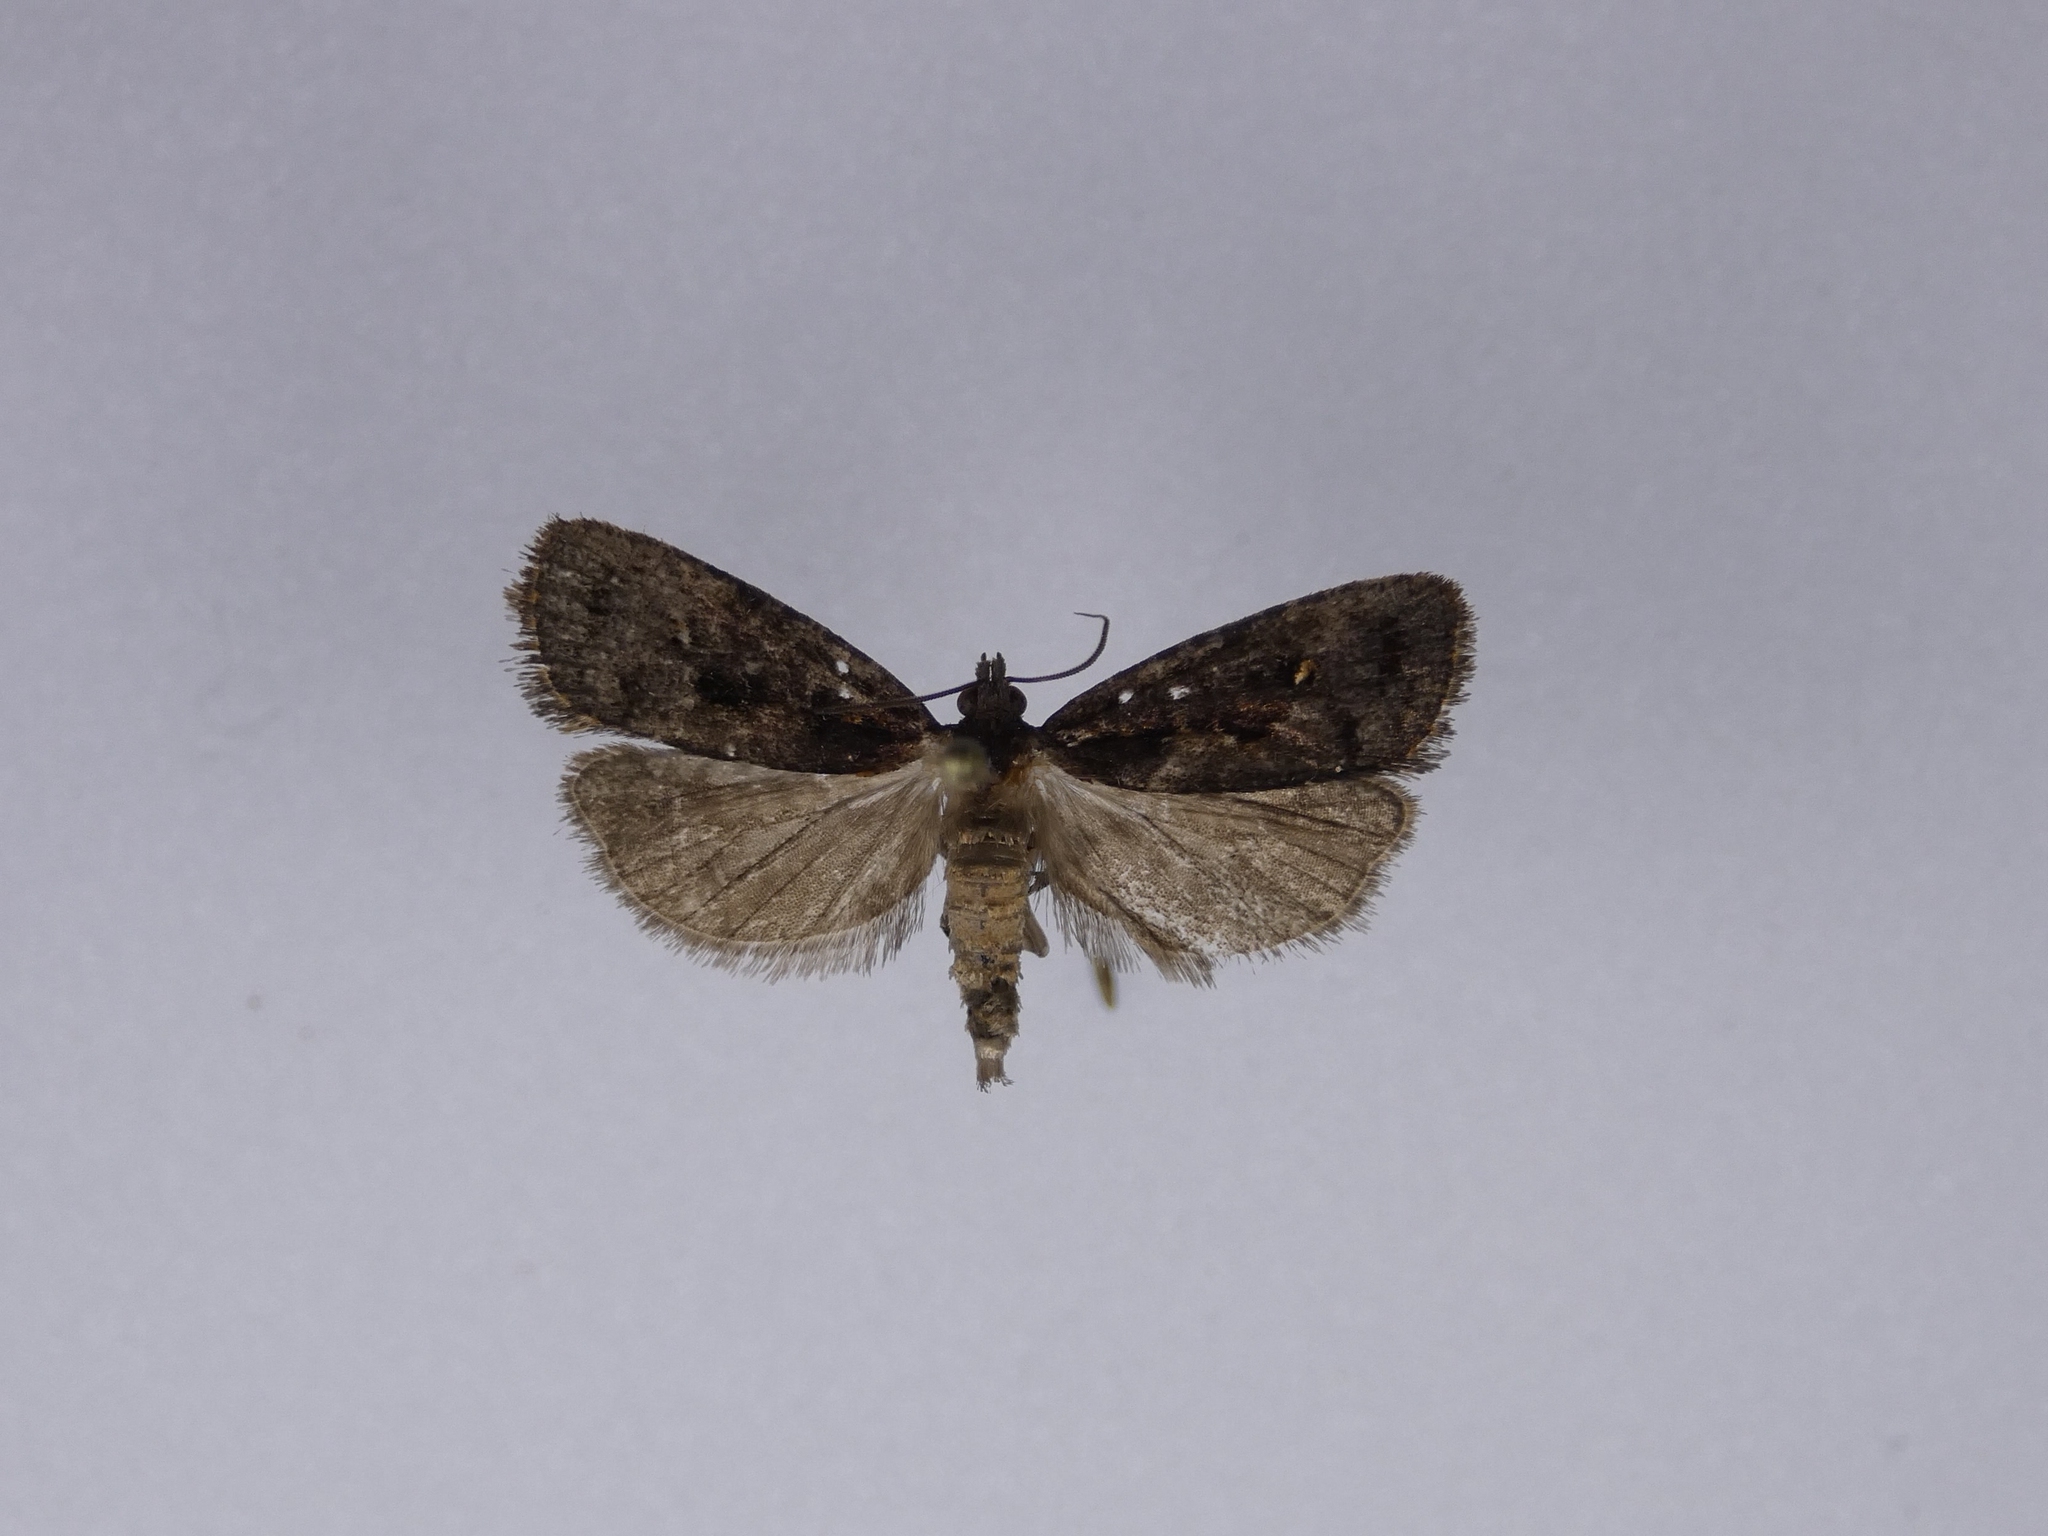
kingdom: Animalia
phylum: Arthropoda
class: Insecta
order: Lepidoptera
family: Tortricidae
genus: Cryptaspasma
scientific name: Cryptaspasma querula
